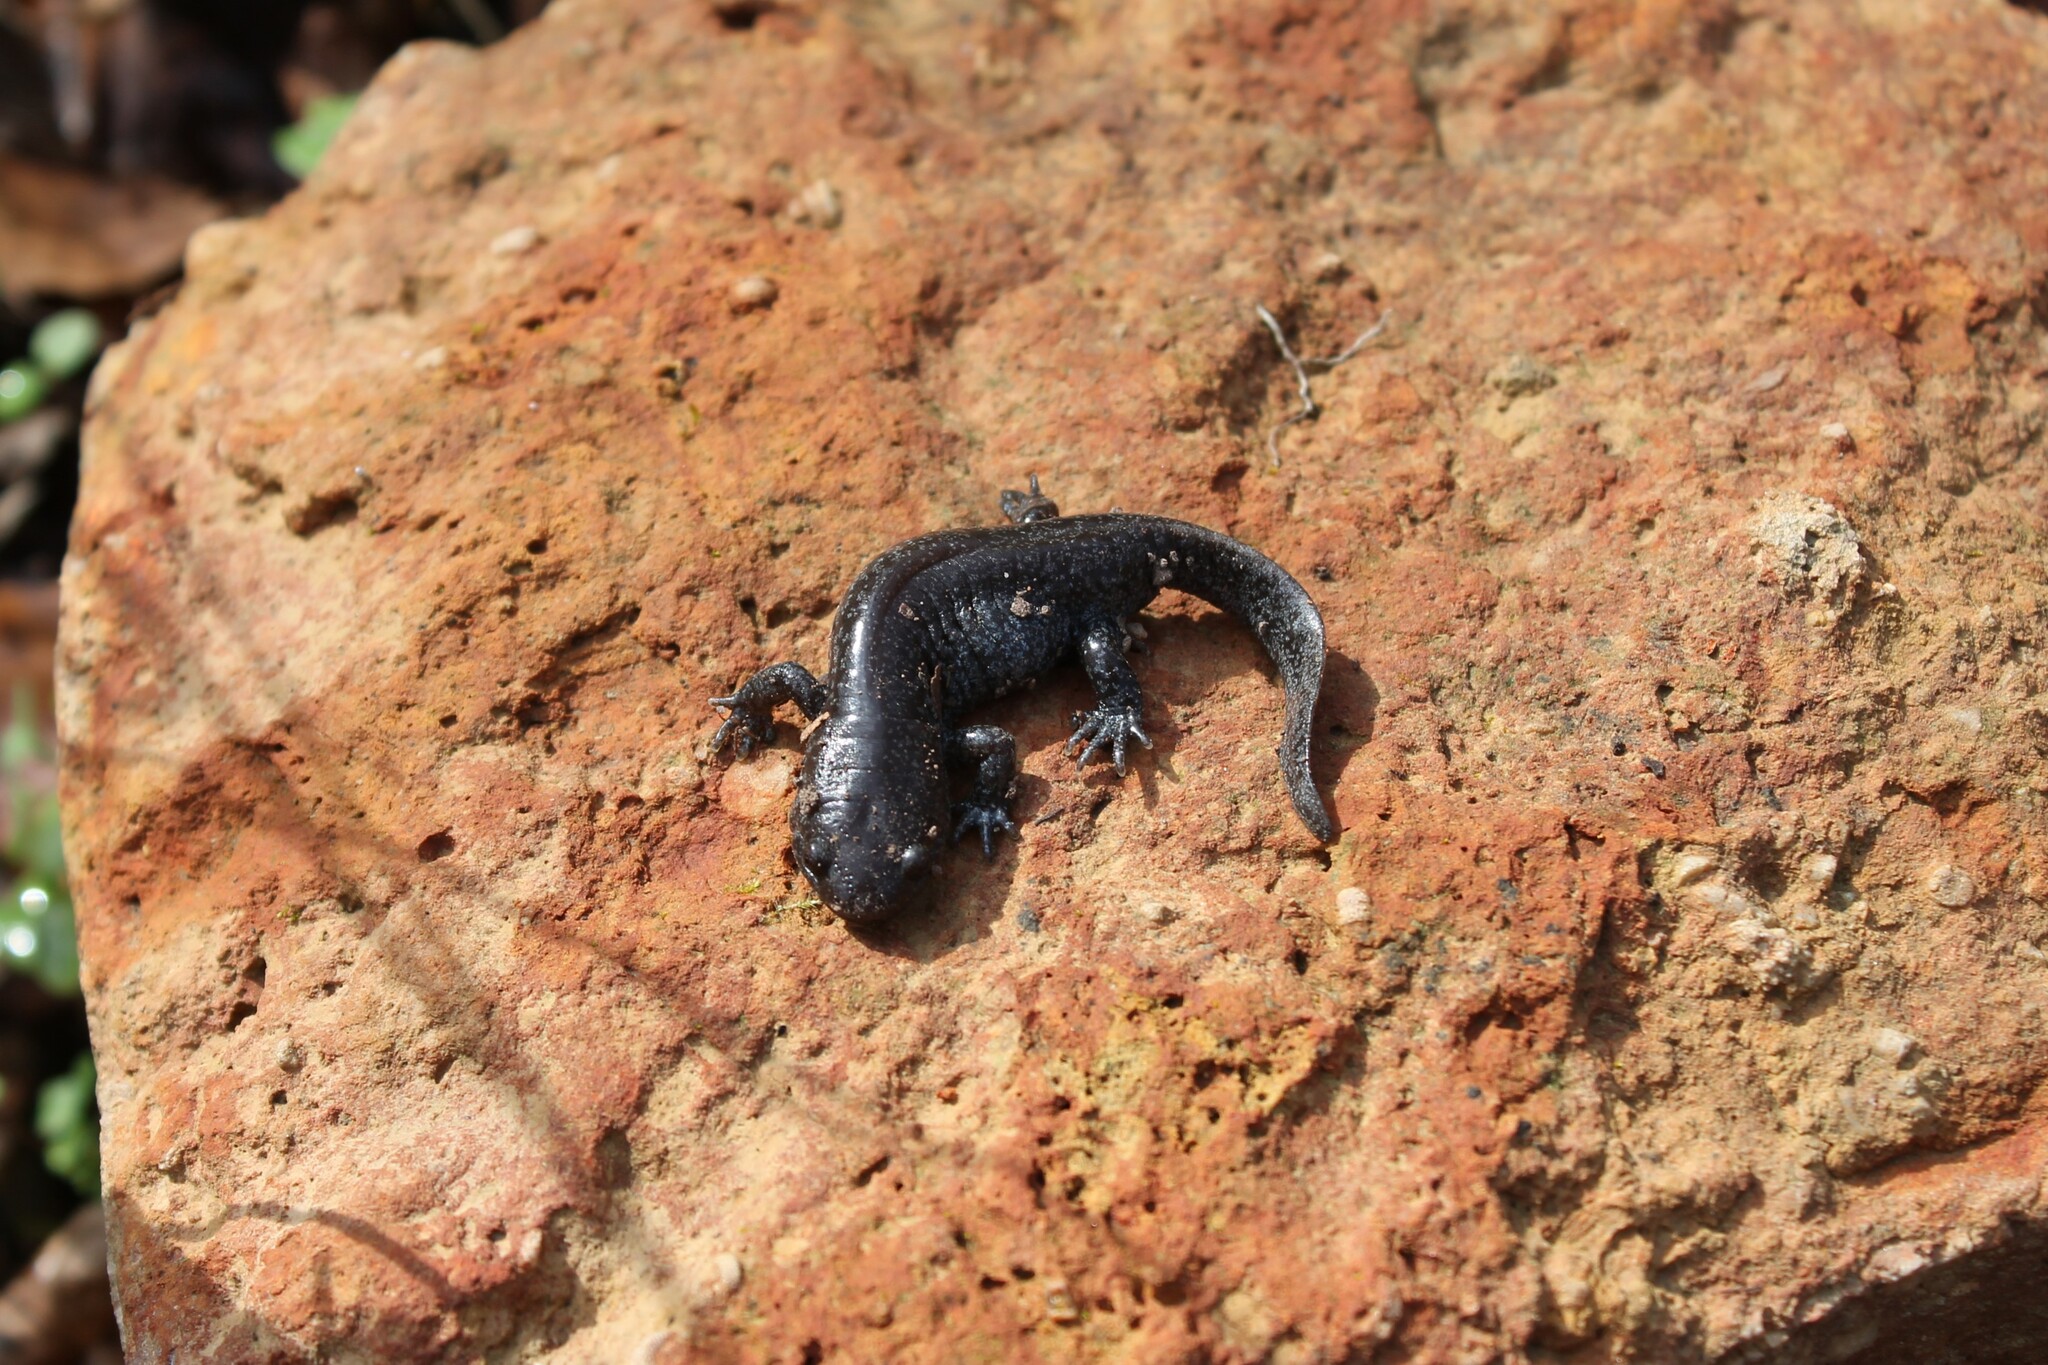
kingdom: Animalia
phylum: Chordata
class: Amphibia
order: Caudata
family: Ambystomatidae
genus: Ambystoma
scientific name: Ambystoma talpoideum
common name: Mole salamander
